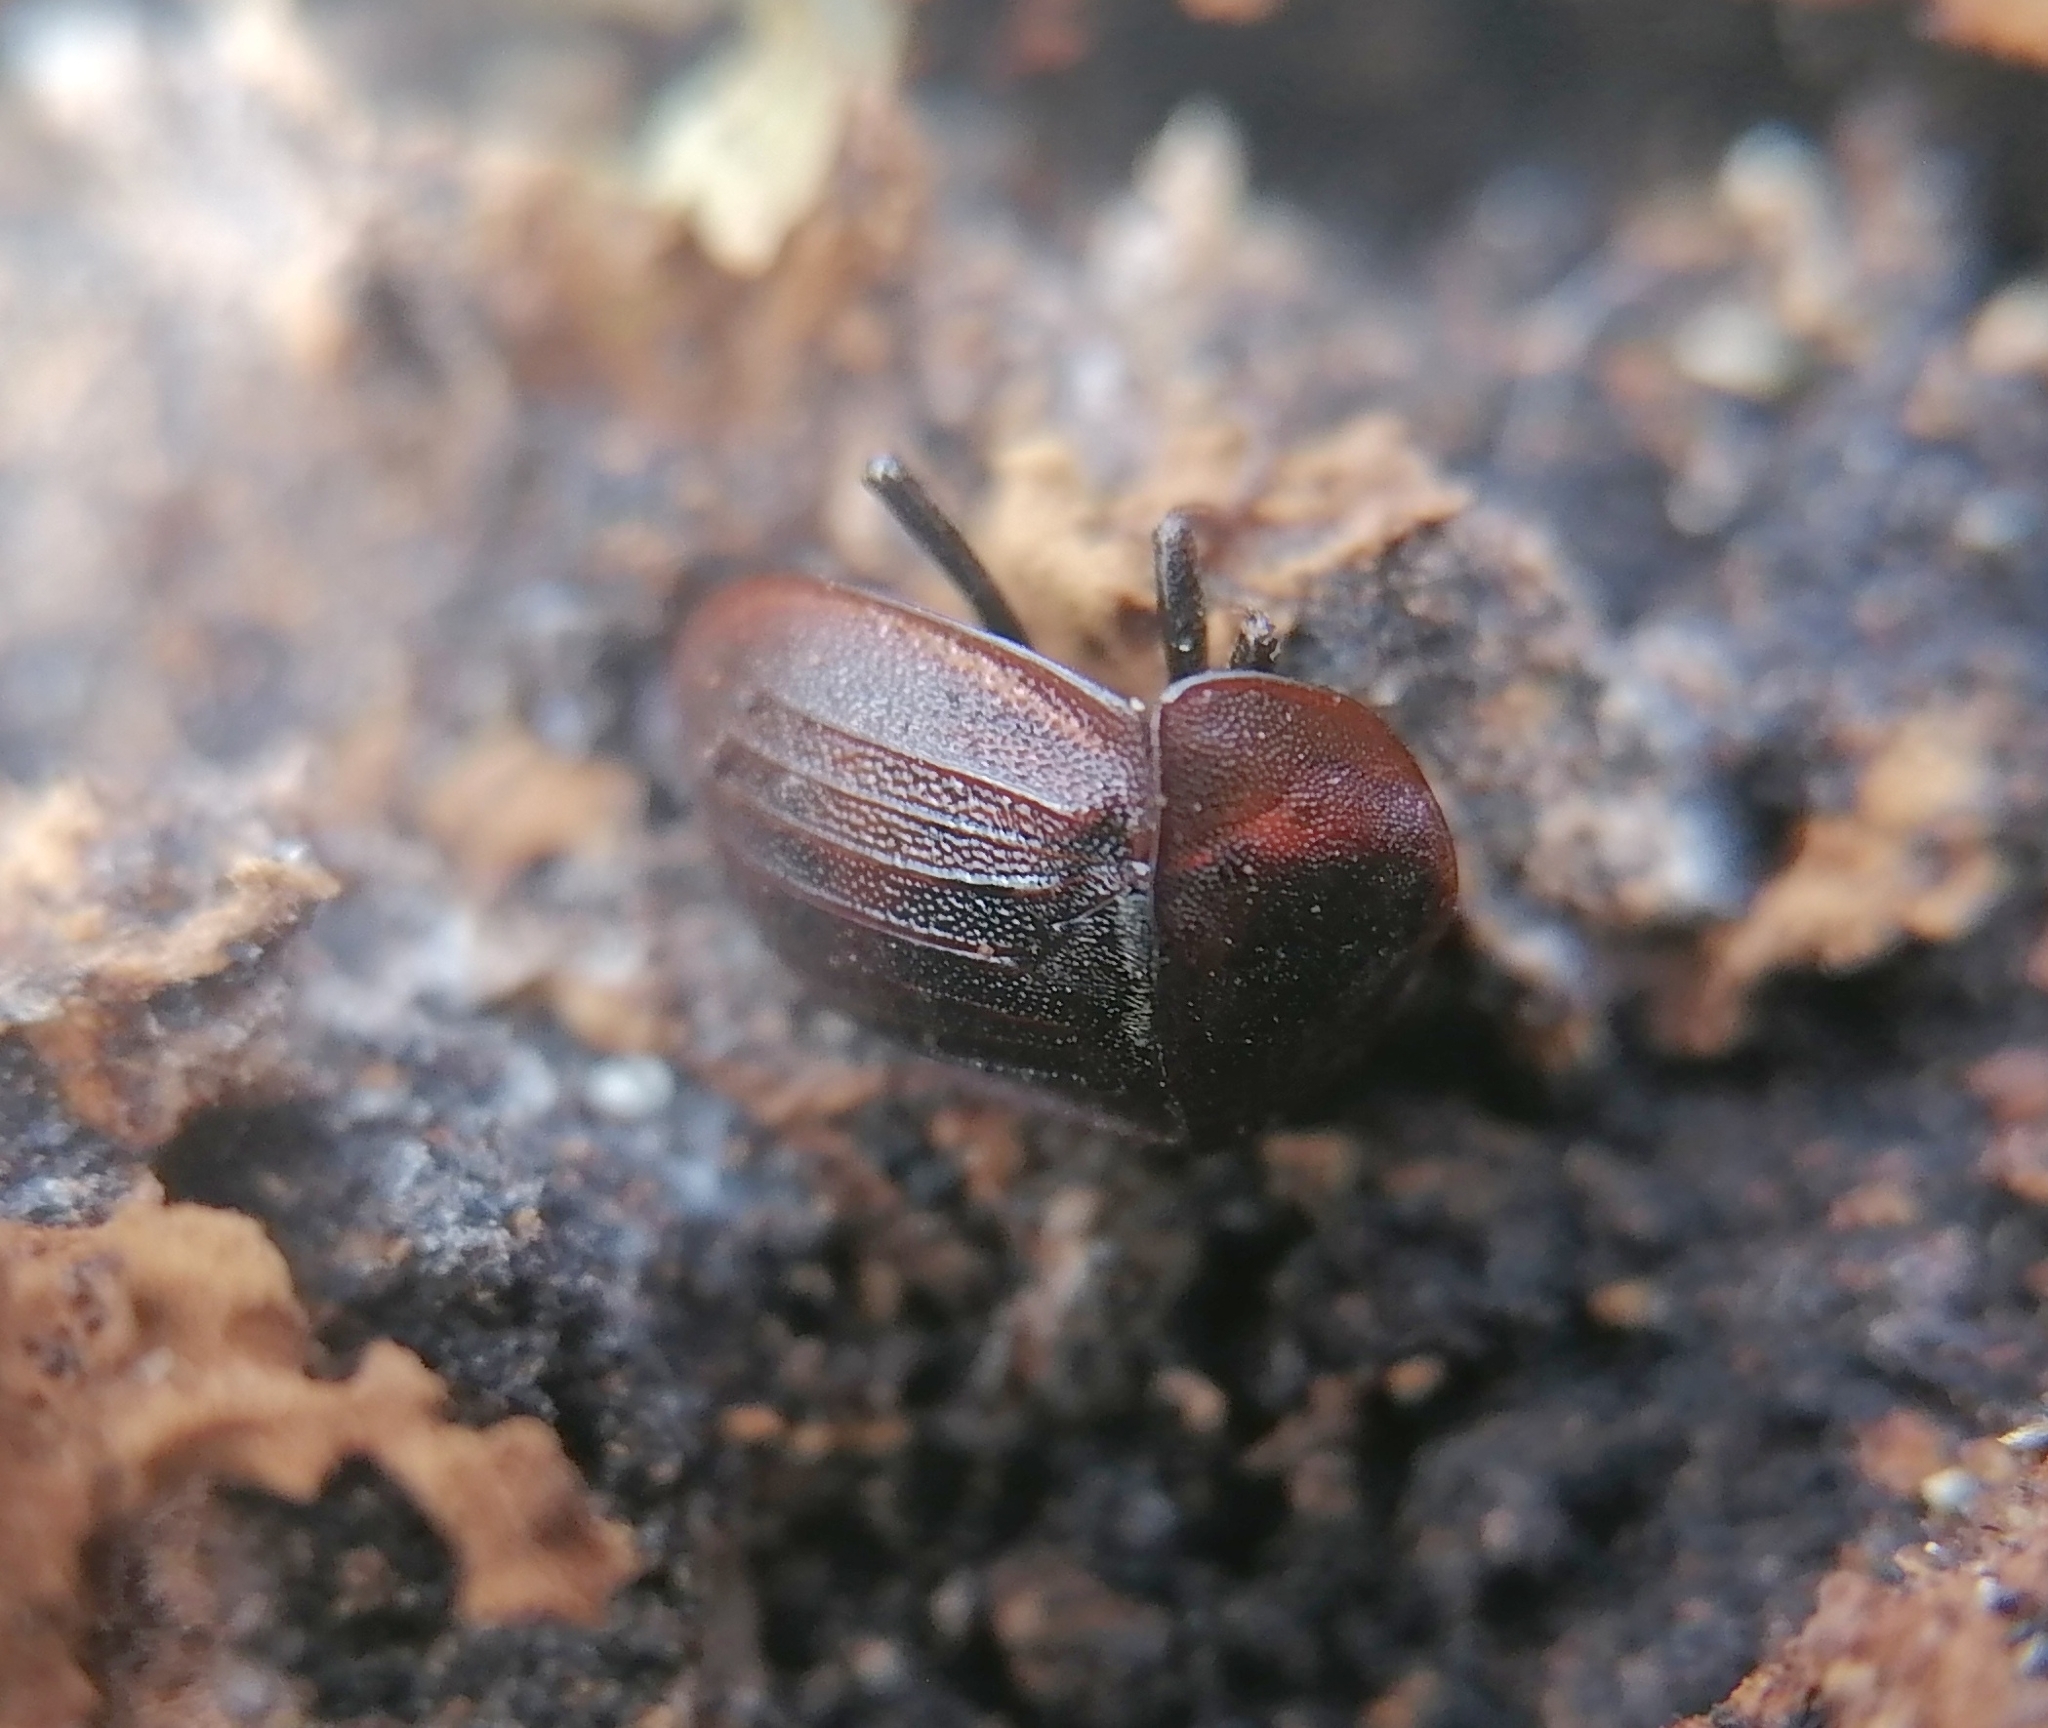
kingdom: Animalia
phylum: Arthropoda
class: Insecta
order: Coleoptera
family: Staphylinidae
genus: Silpha
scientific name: Silpha atrata
